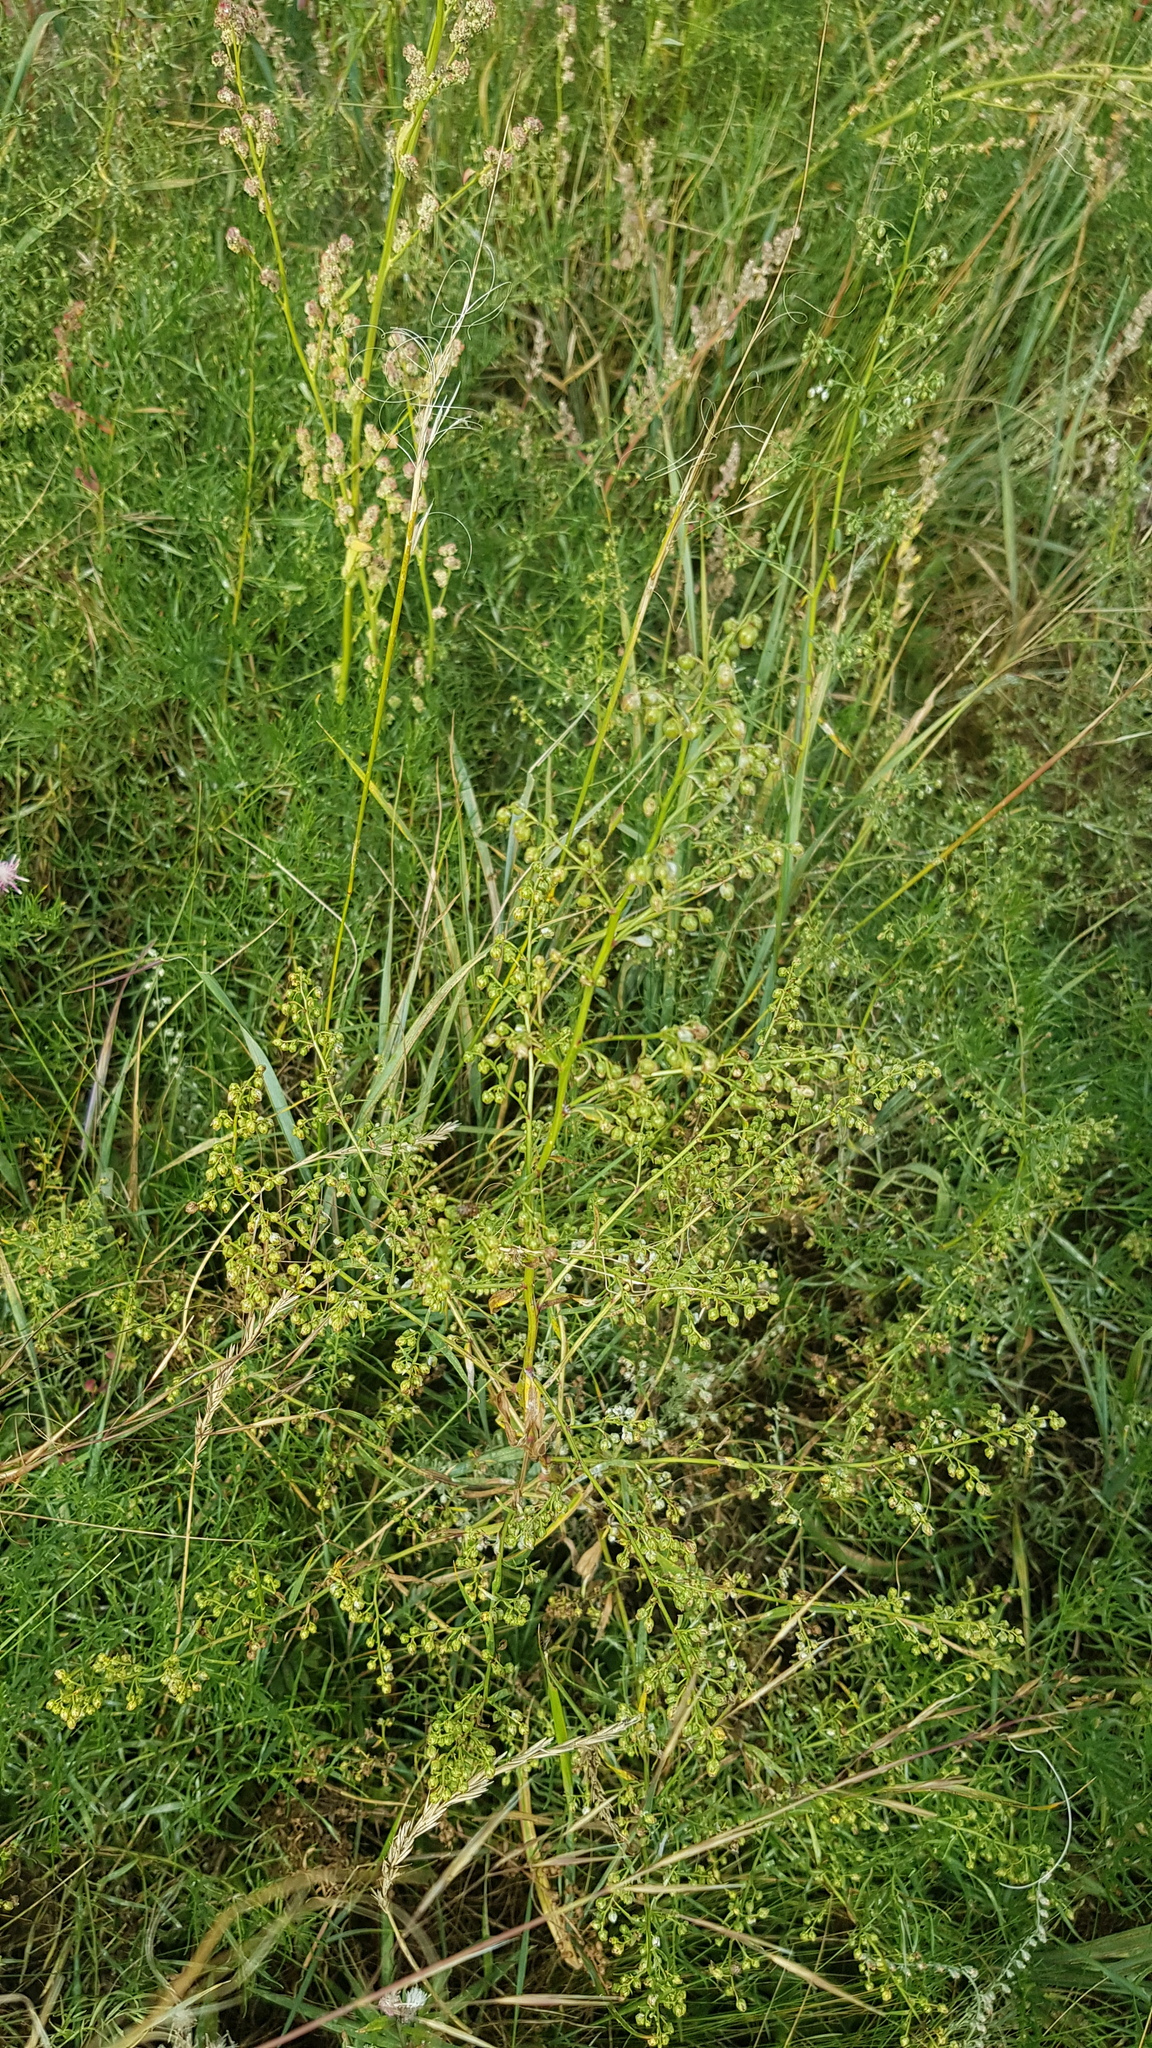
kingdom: Plantae
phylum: Tracheophyta
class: Magnoliopsida
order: Asterales
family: Asteraceae
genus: Artemisia
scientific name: Artemisia scoparia
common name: Redstem wormwood
